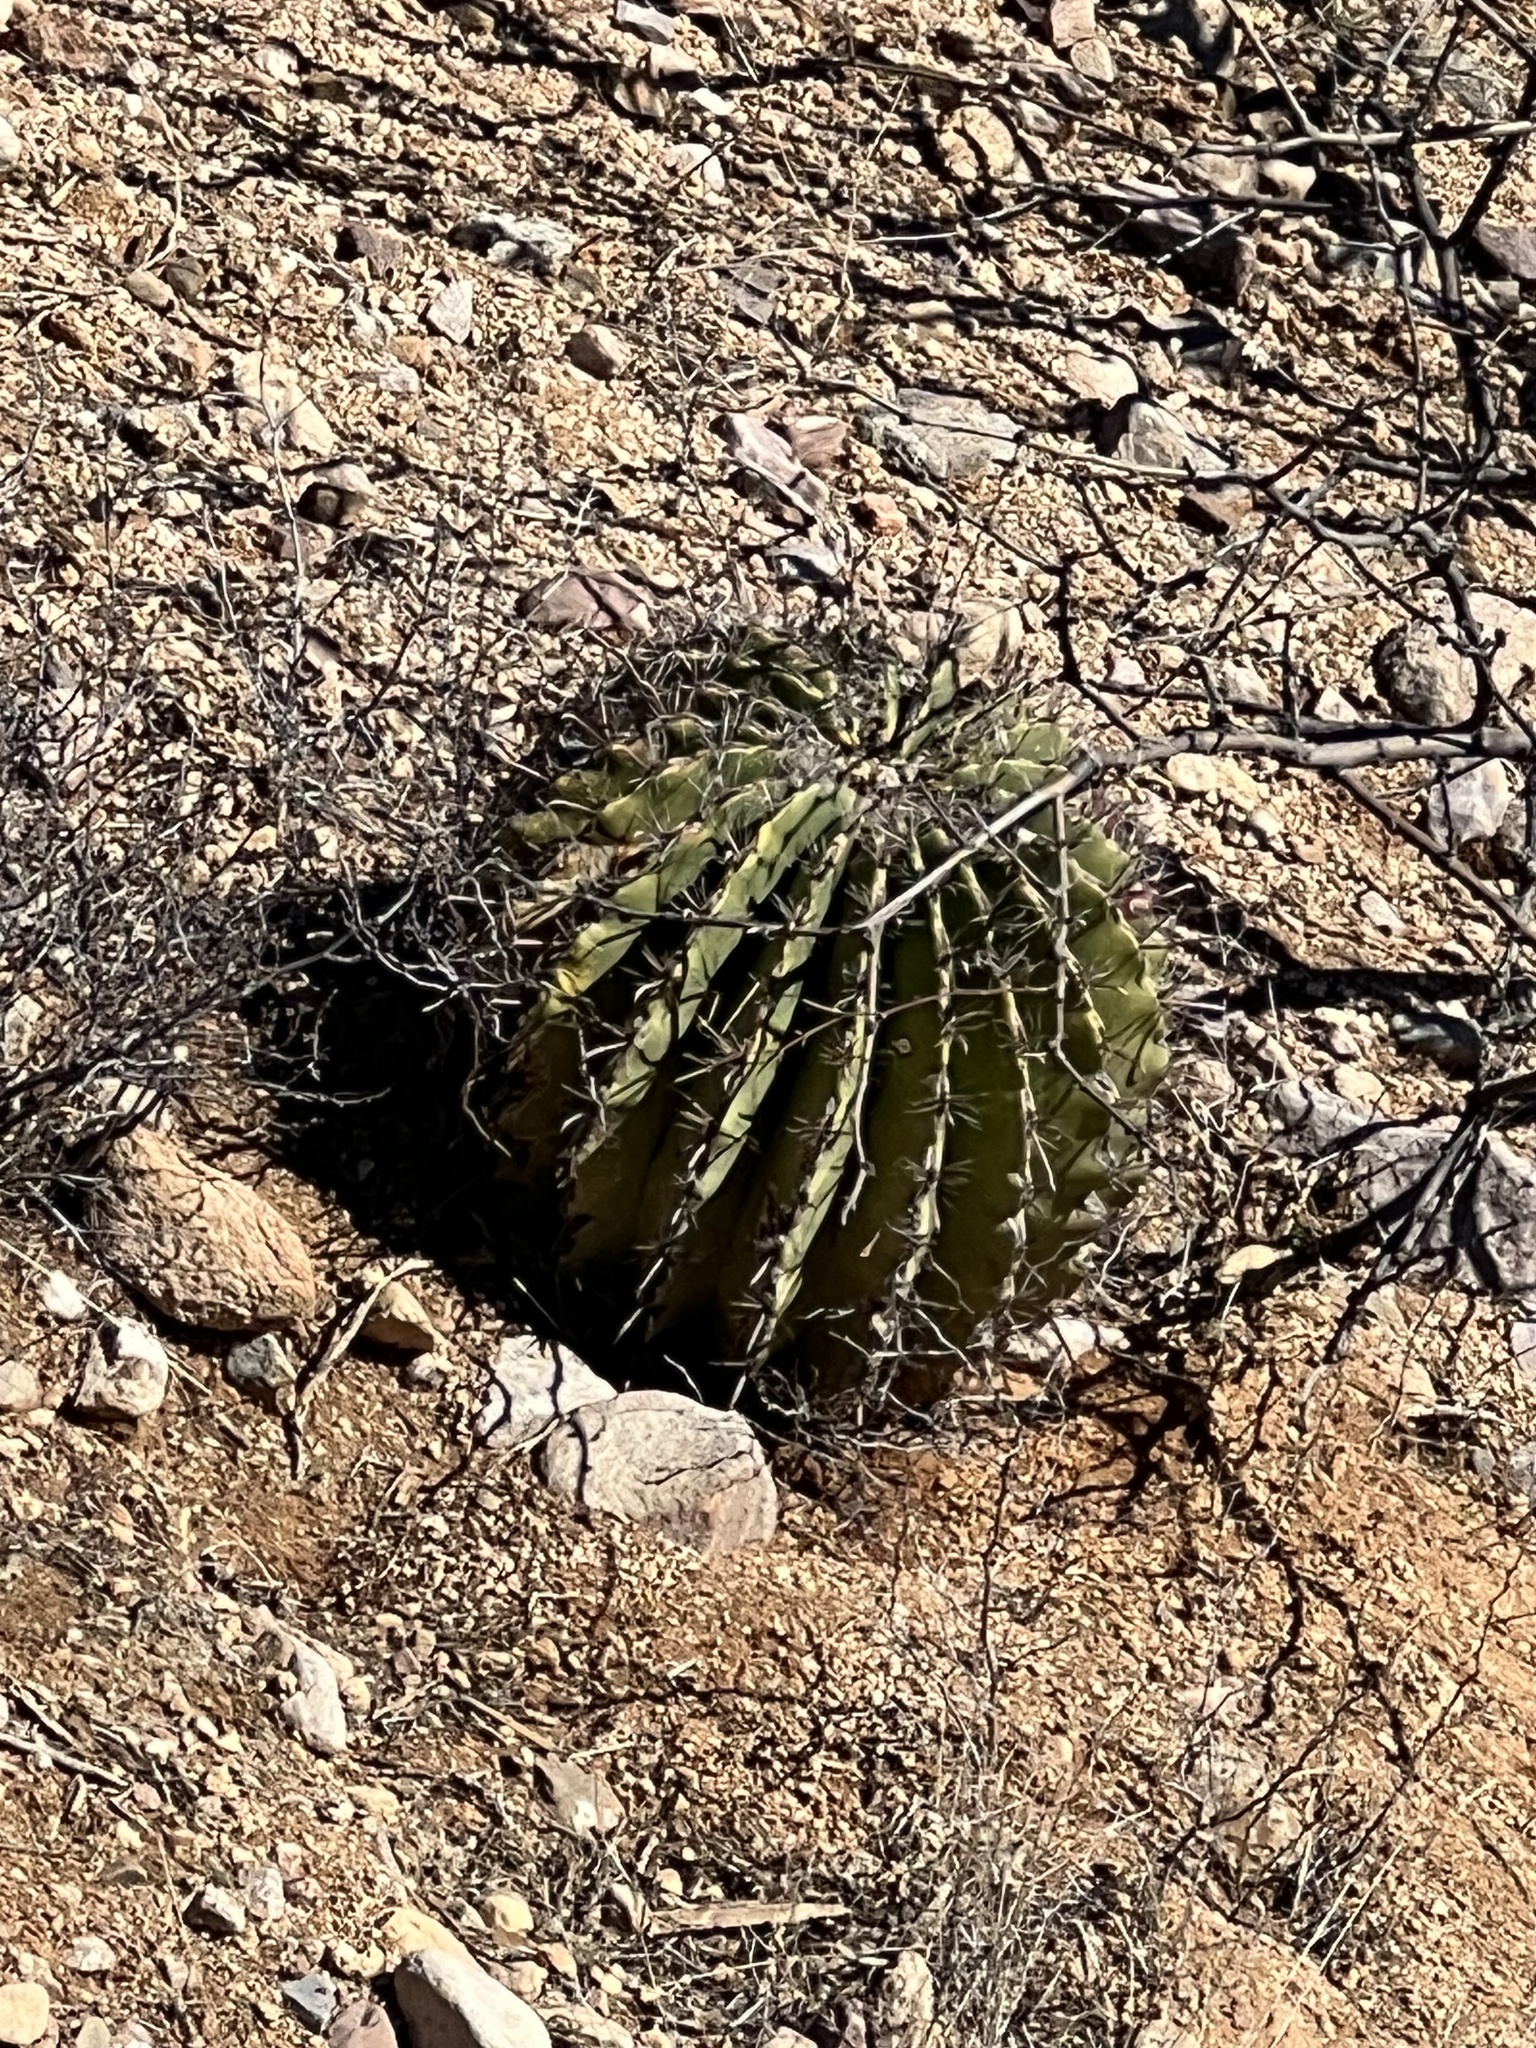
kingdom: Plantae
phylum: Tracheophyta
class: Magnoliopsida
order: Caryophyllales
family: Cactaceae
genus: Ferocactus
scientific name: Ferocactus wislizeni
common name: Candy barrel cactus
